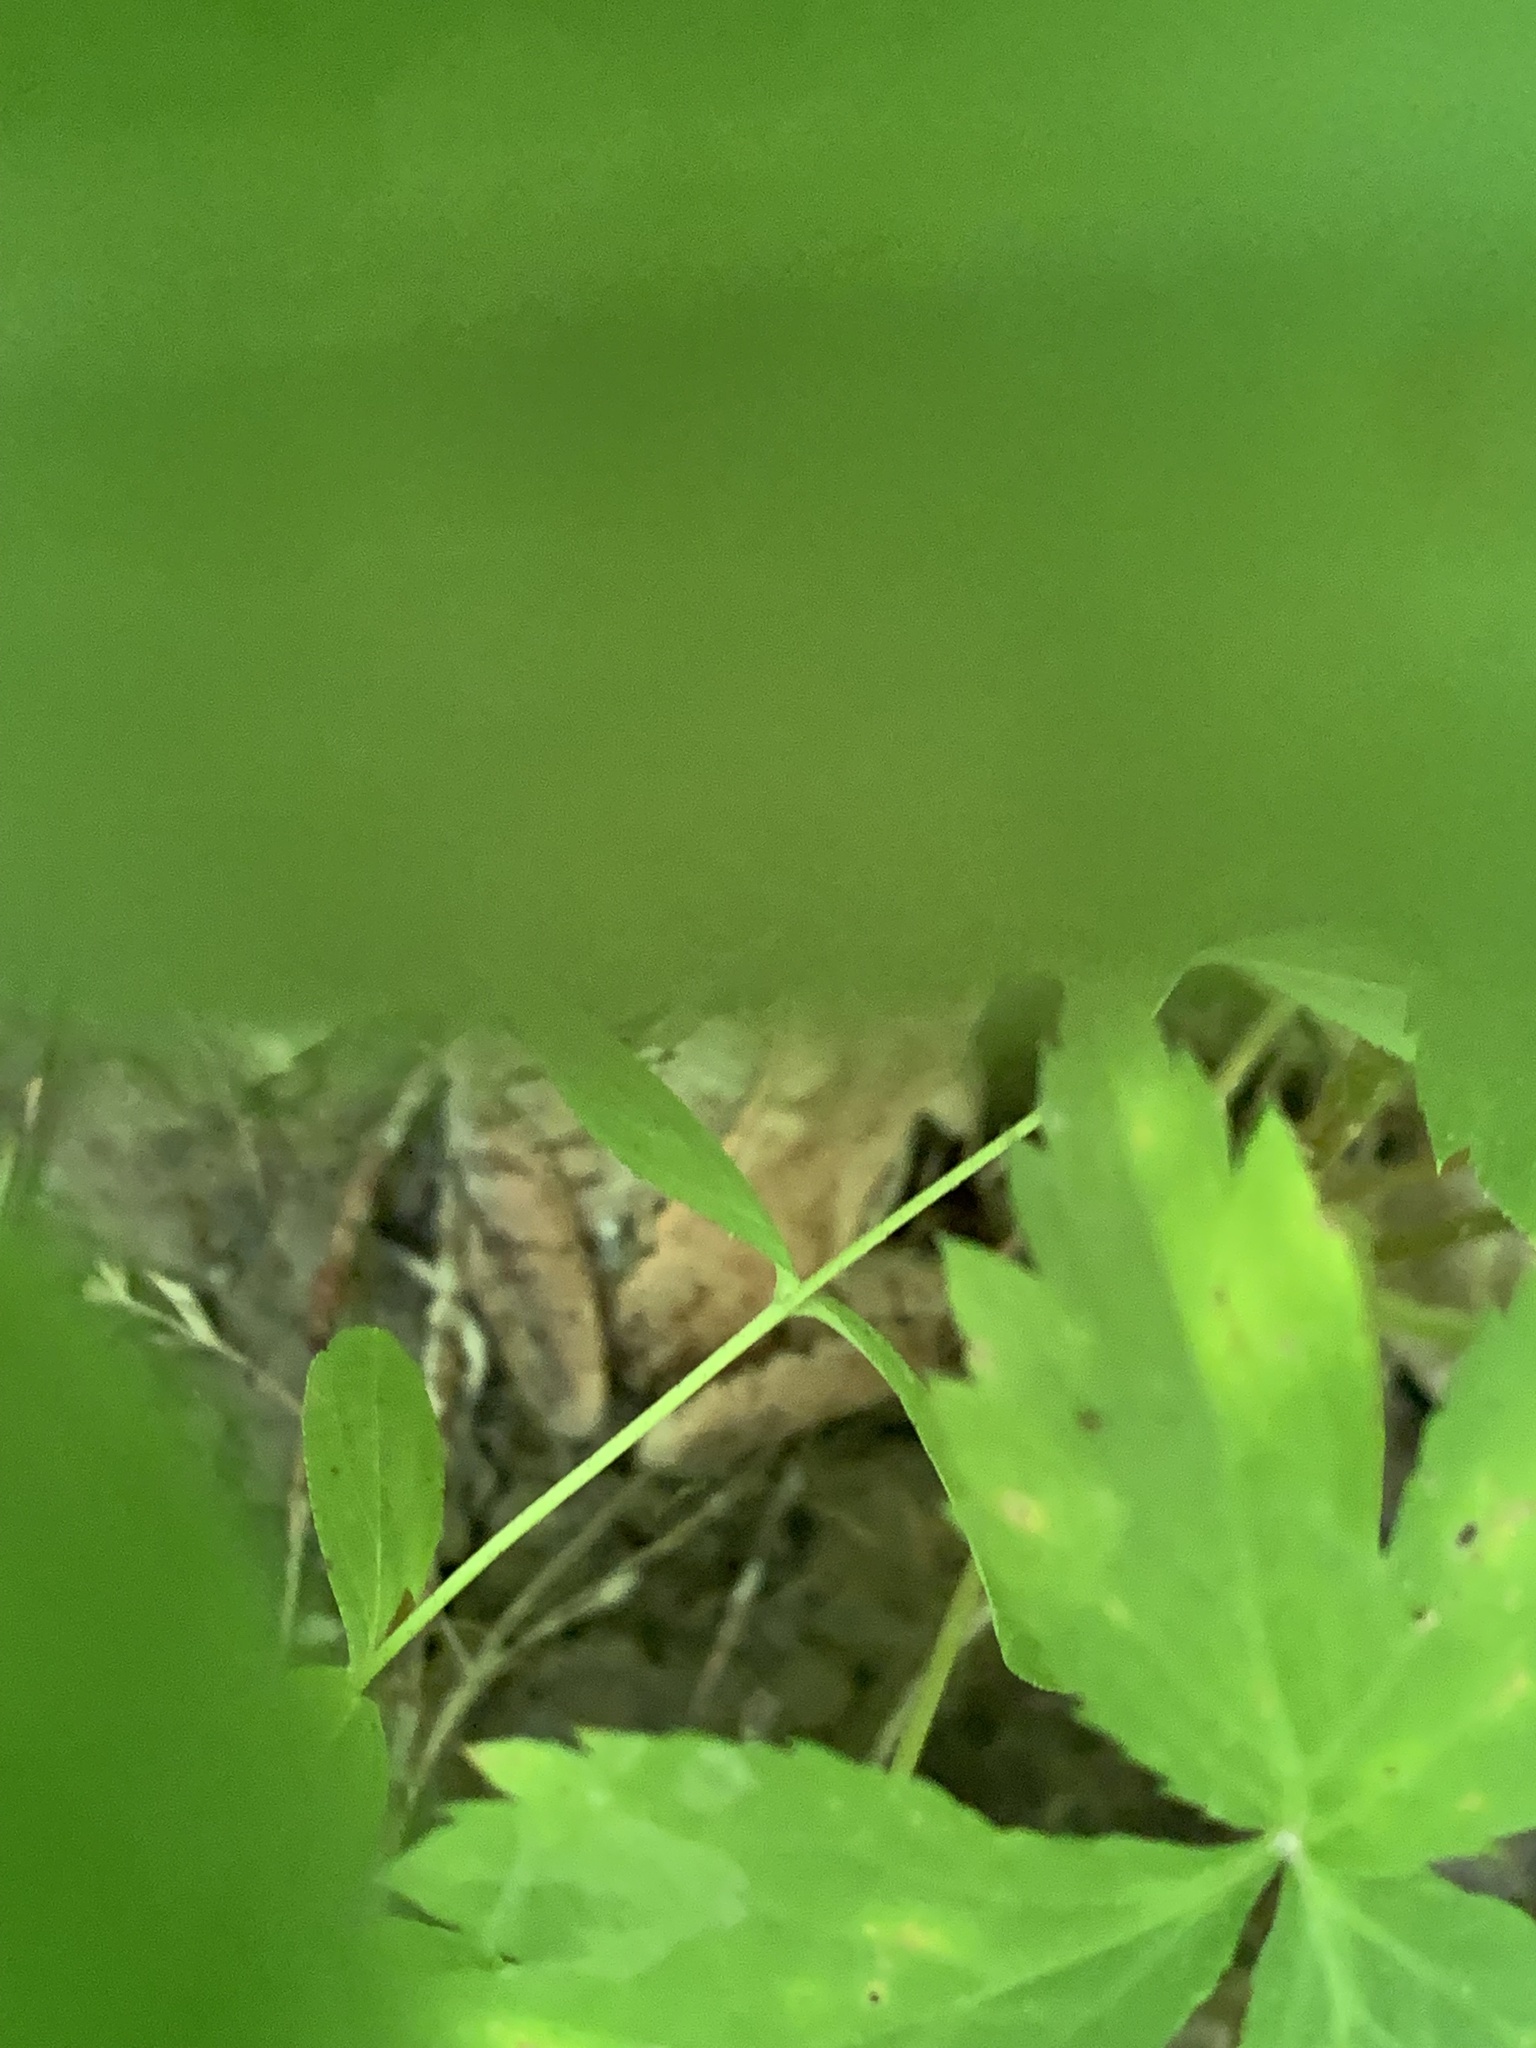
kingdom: Animalia
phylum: Chordata
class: Amphibia
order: Anura
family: Ranidae
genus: Lithobates
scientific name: Lithobates sylvaticus
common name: Wood frog
